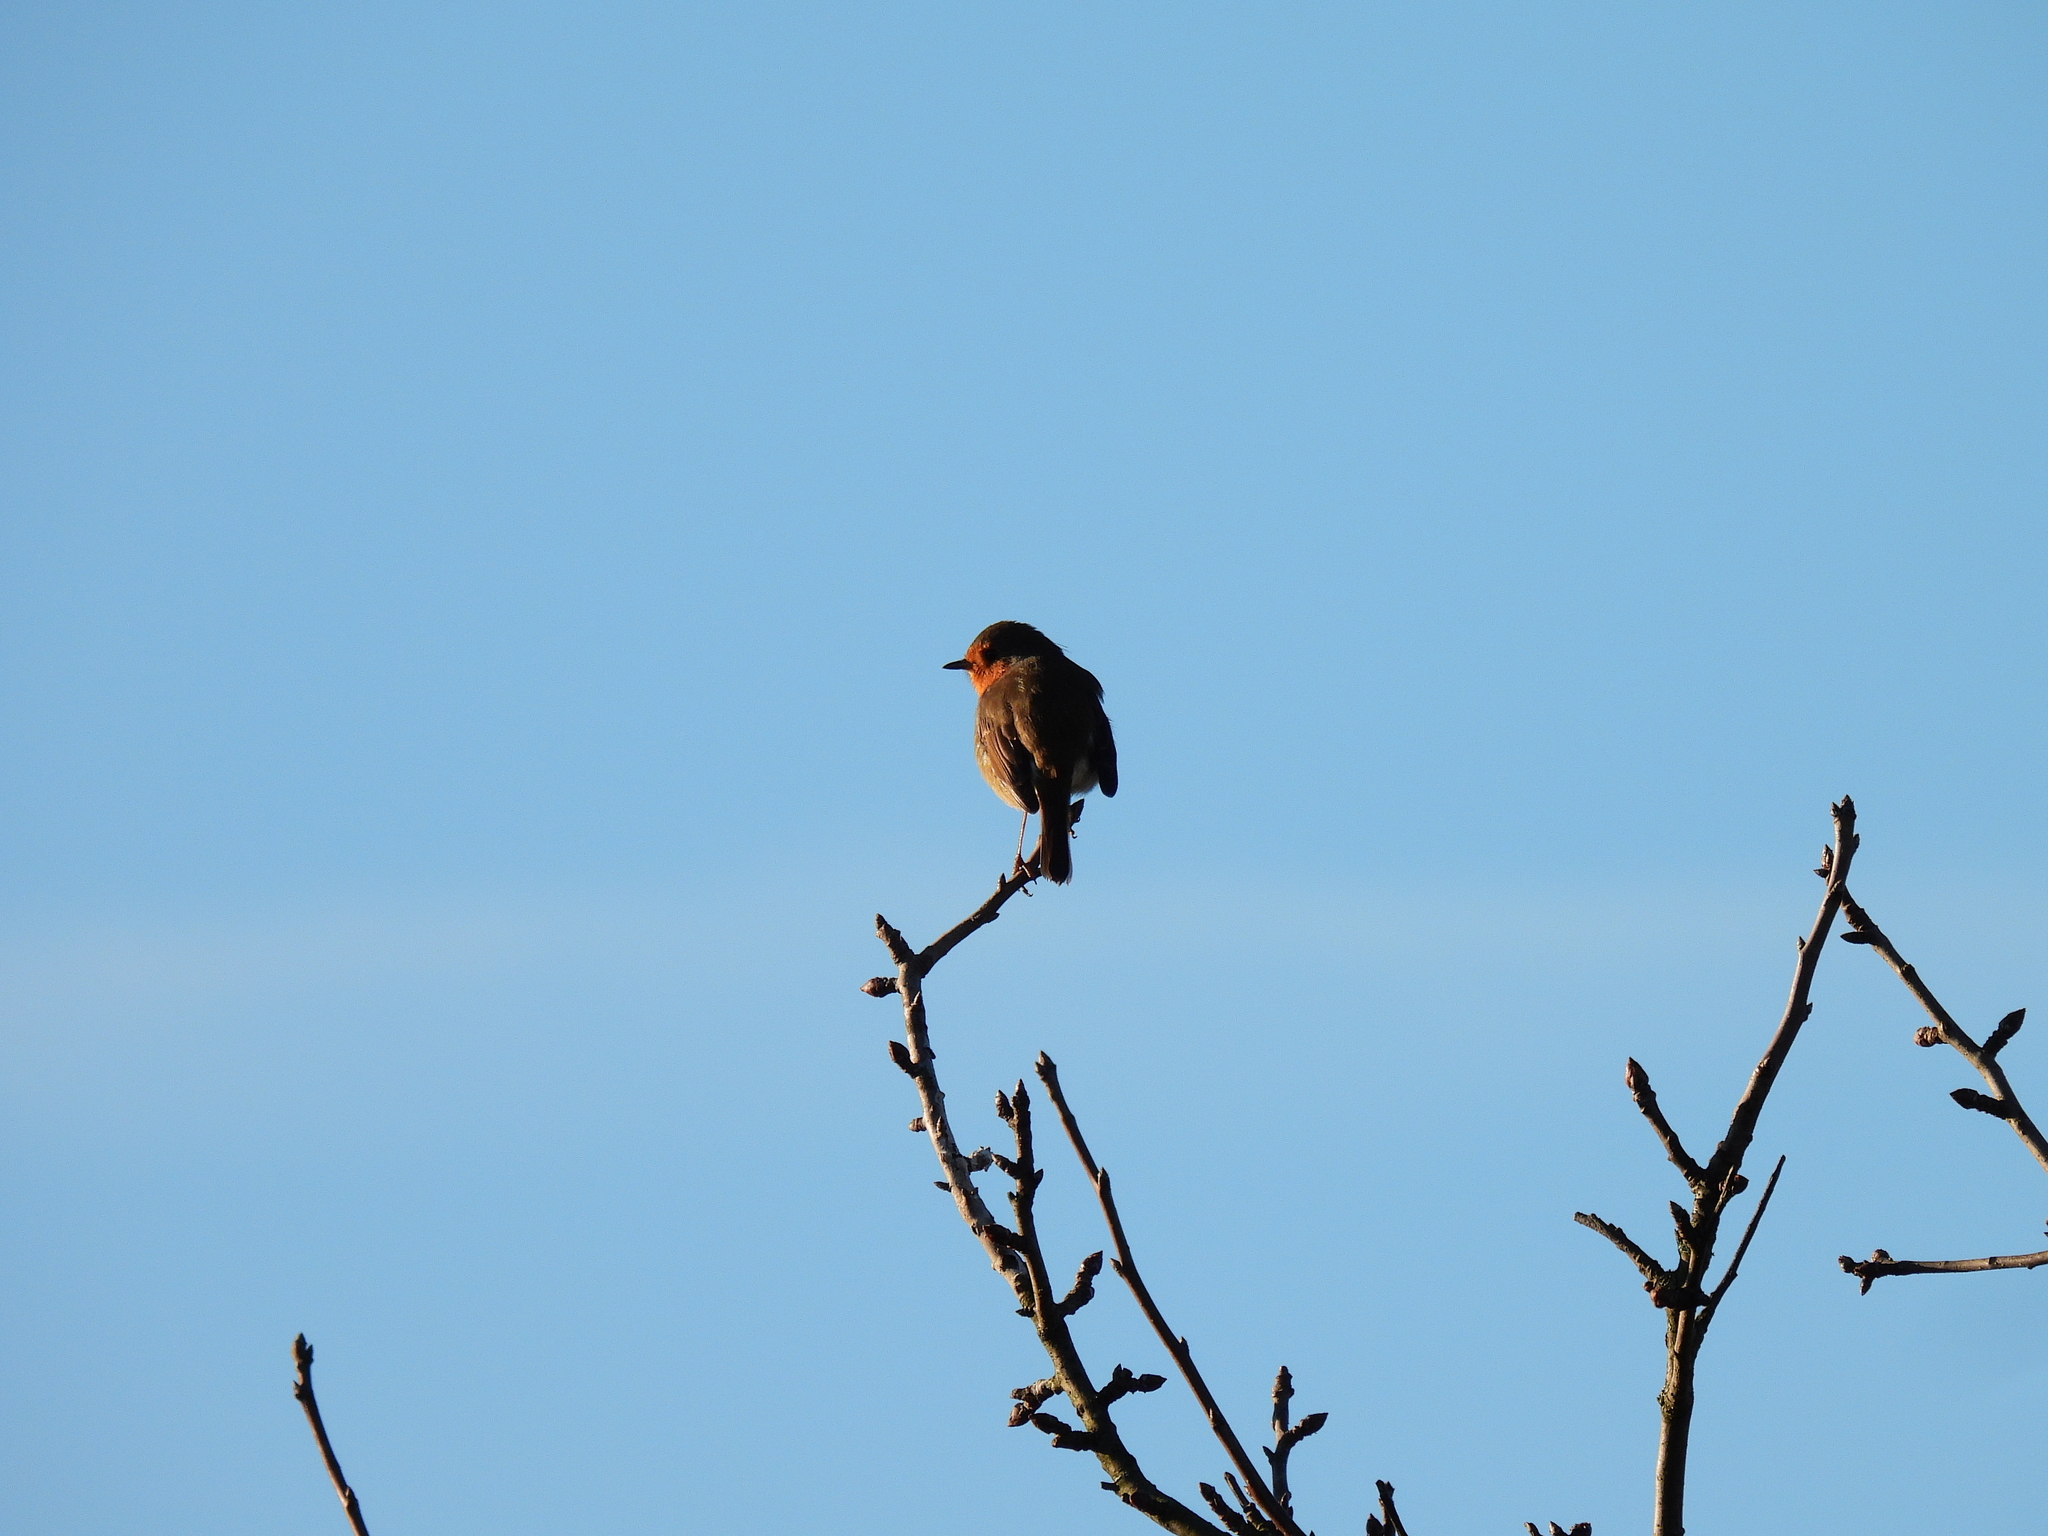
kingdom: Animalia
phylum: Chordata
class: Aves
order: Passeriformes
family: Muscicapidae
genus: Erithacus
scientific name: Erithacus rubecula
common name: European robin
